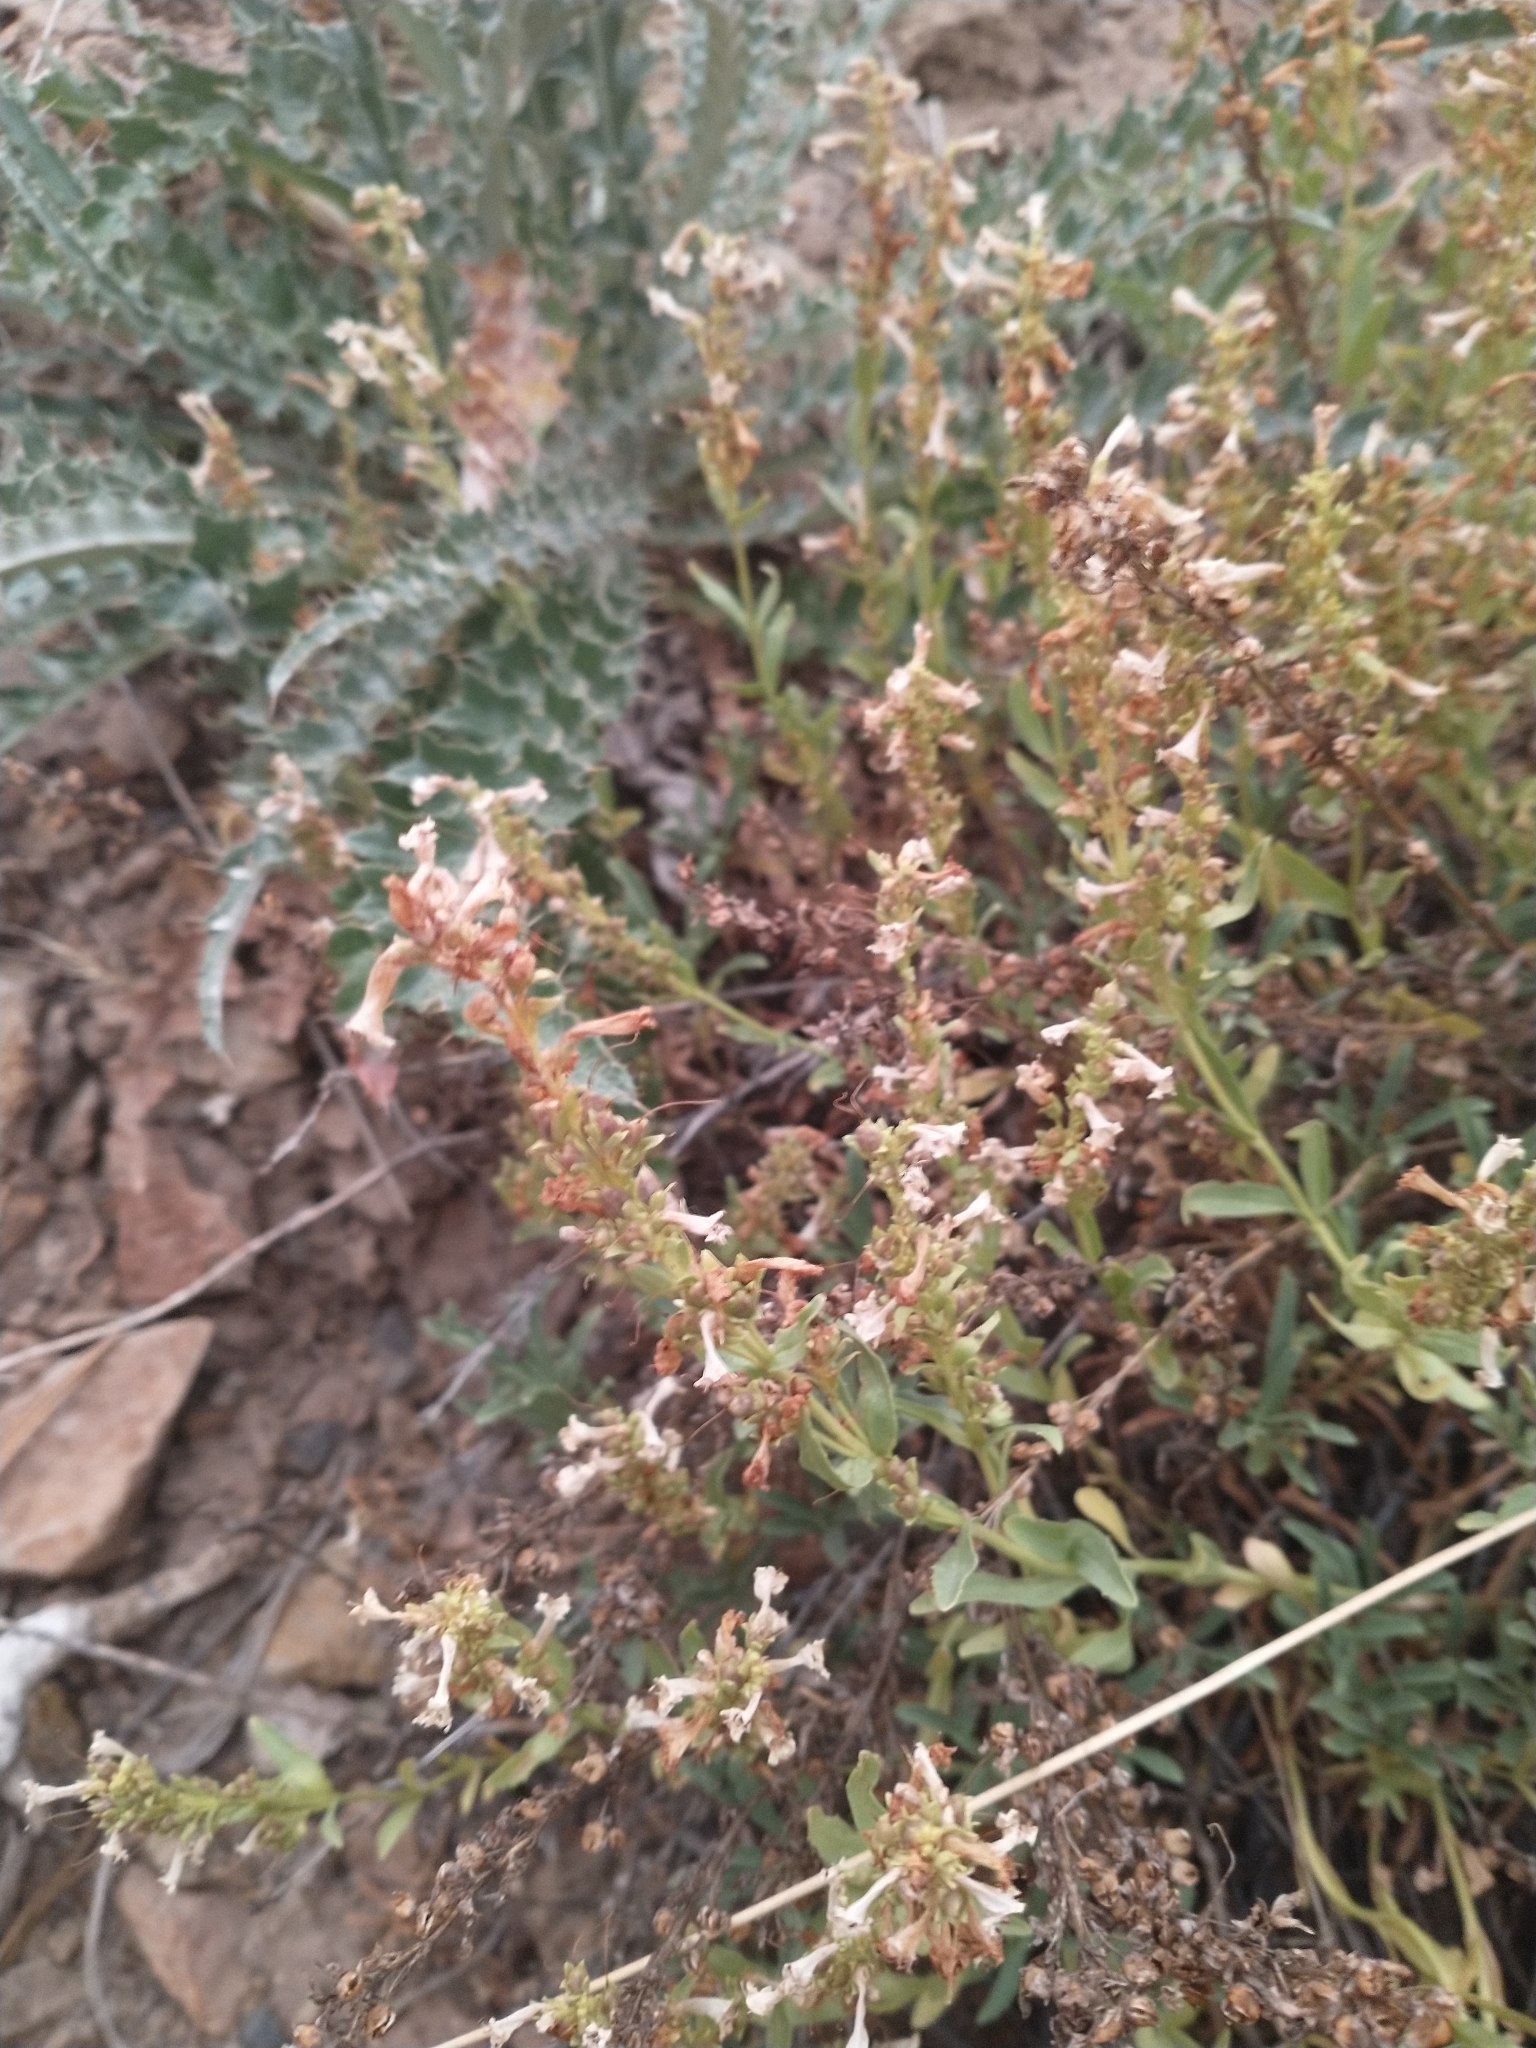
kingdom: Plantae
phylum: Tracheophyta
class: Magnoliopsida
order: Lamiales
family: Plantaginaceae
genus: Penstemon
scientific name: Penstemon deustus
